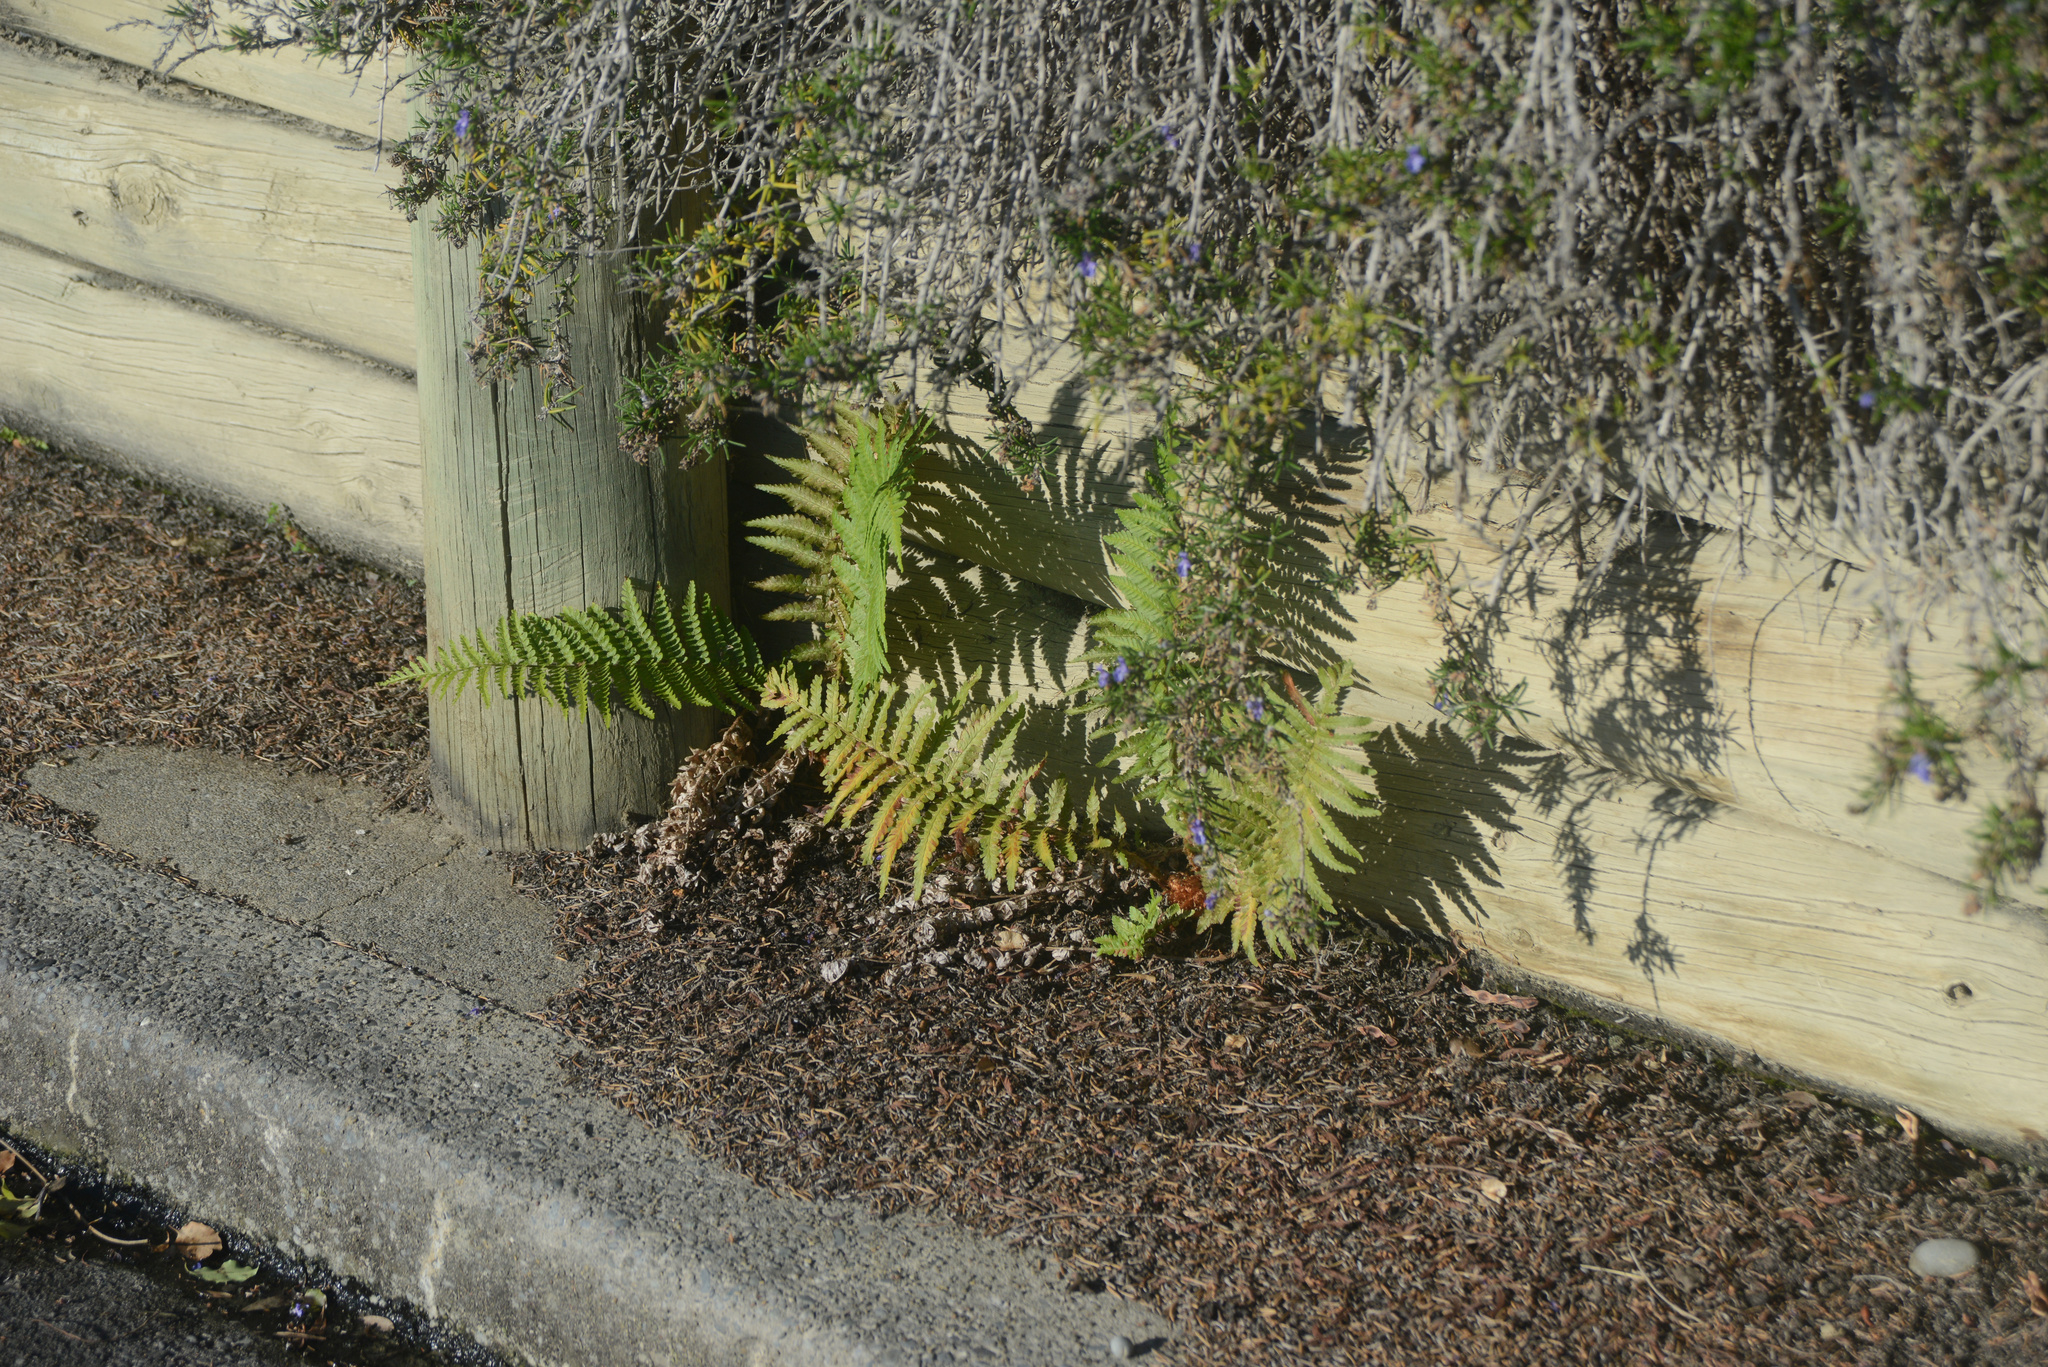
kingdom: Plantae
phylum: Tracheophyta
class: Polypodiopsida
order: Polypodiales
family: Dryopteridaceae
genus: Dryopteris
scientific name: Dryopteris filix-mas
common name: Male fern
